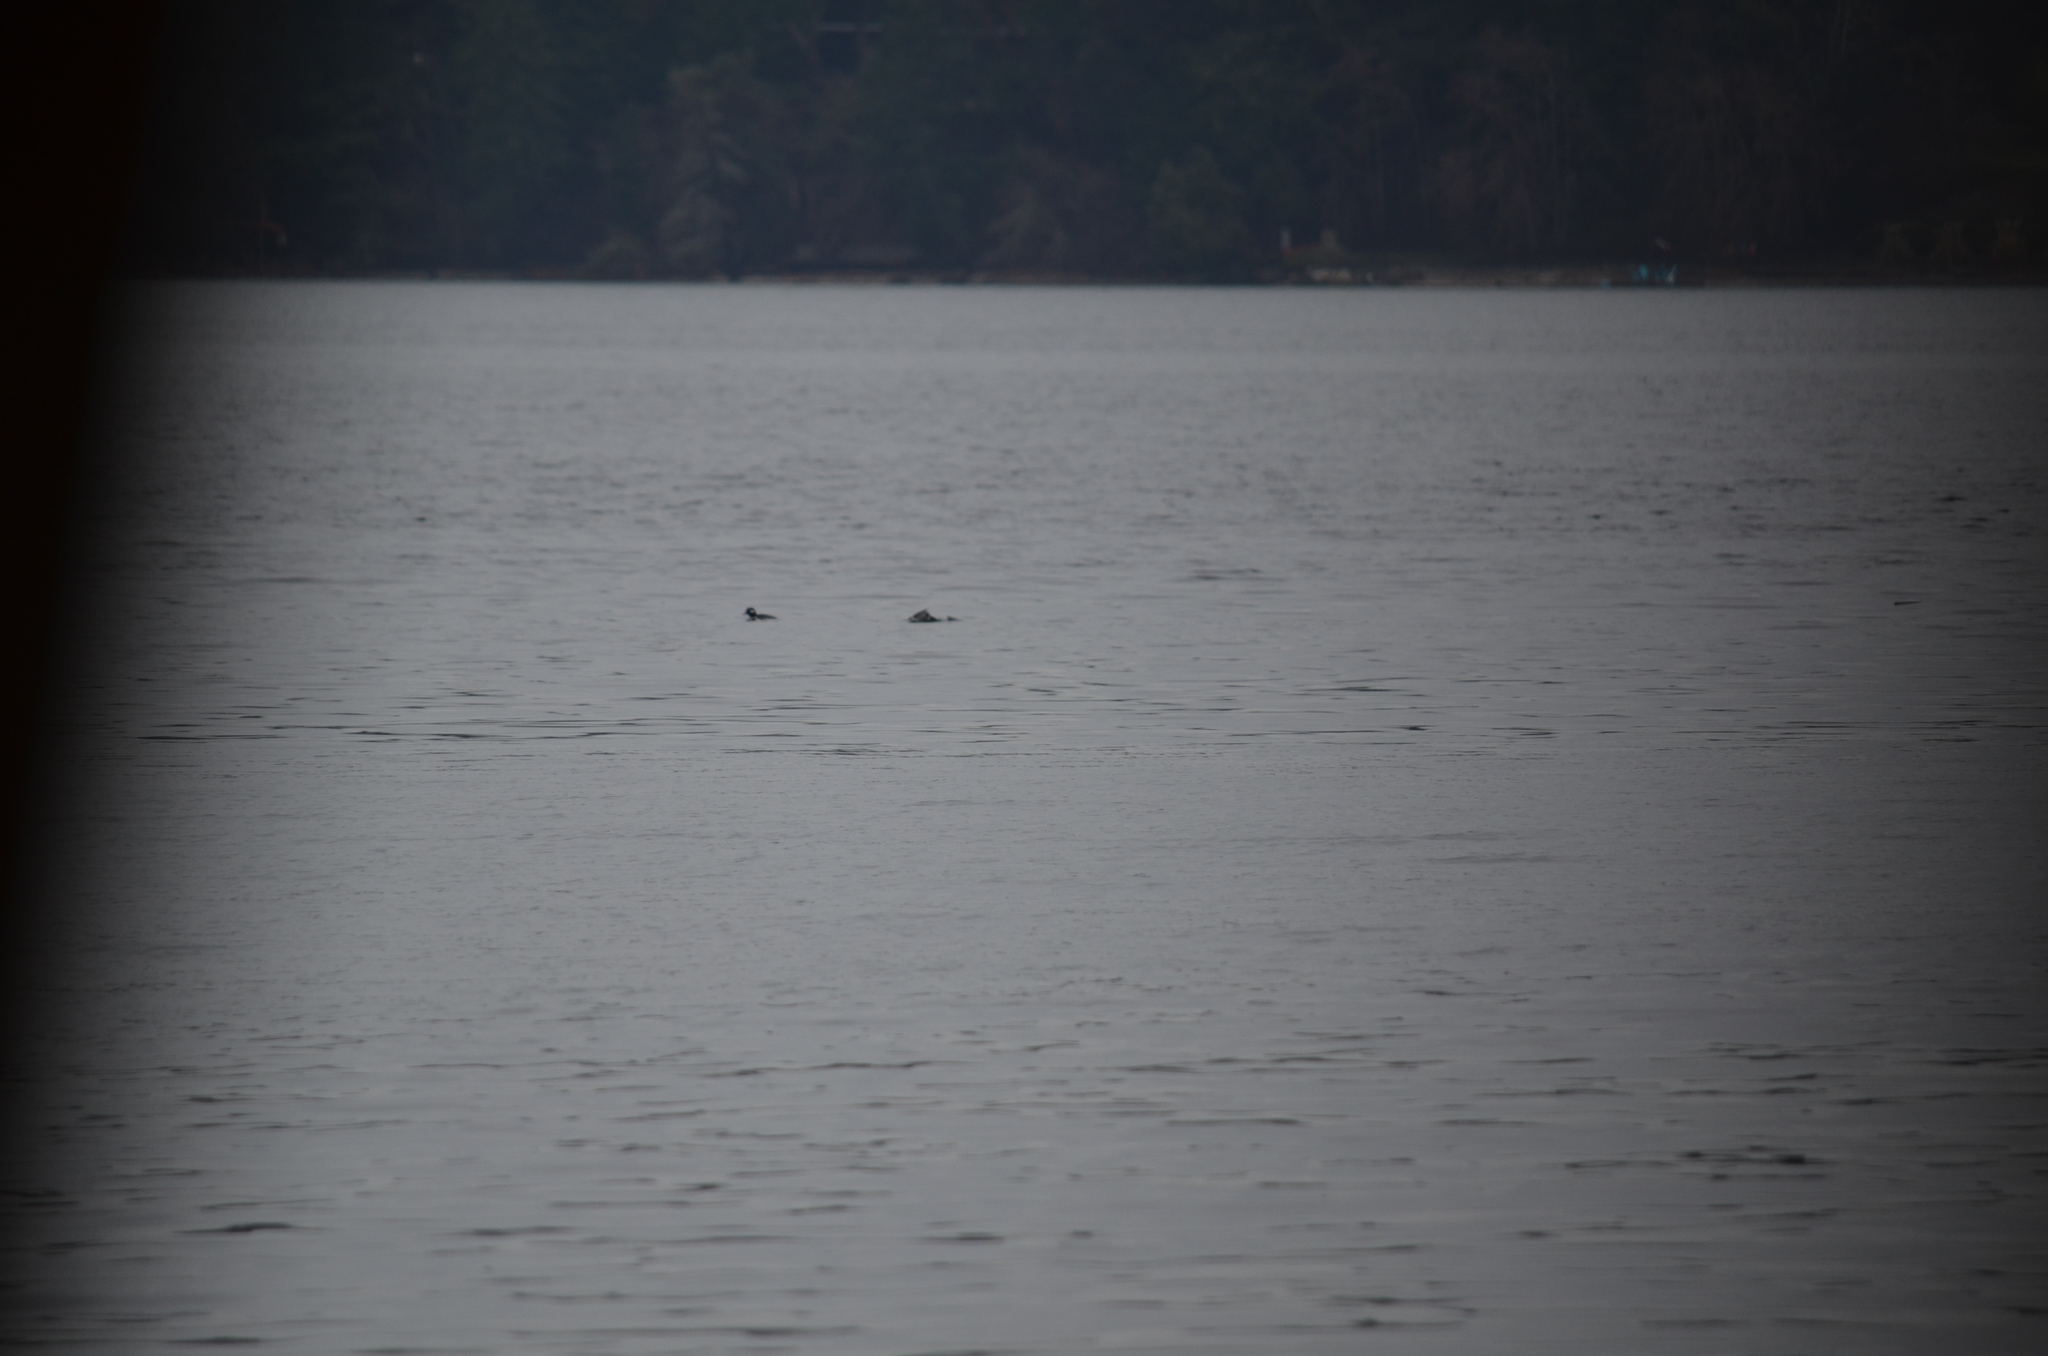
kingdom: Animalia
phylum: Chordata
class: Aves
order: Anseriformes
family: Anatidae
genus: Bucephala
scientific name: Bucephala albeola
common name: Bufflehead
